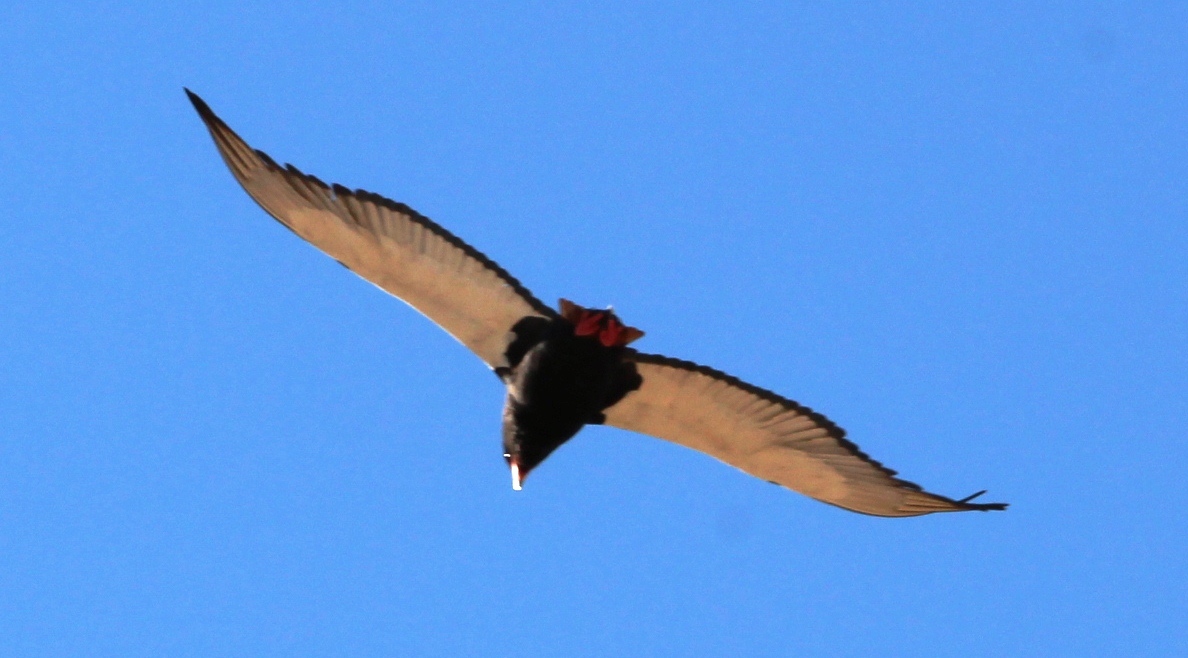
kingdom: Animalia
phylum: Chordata
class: Aves
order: Accipitriformes
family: Accipitridae
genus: Terathopius
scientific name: Terathopius ecaudatus
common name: Bateleur
